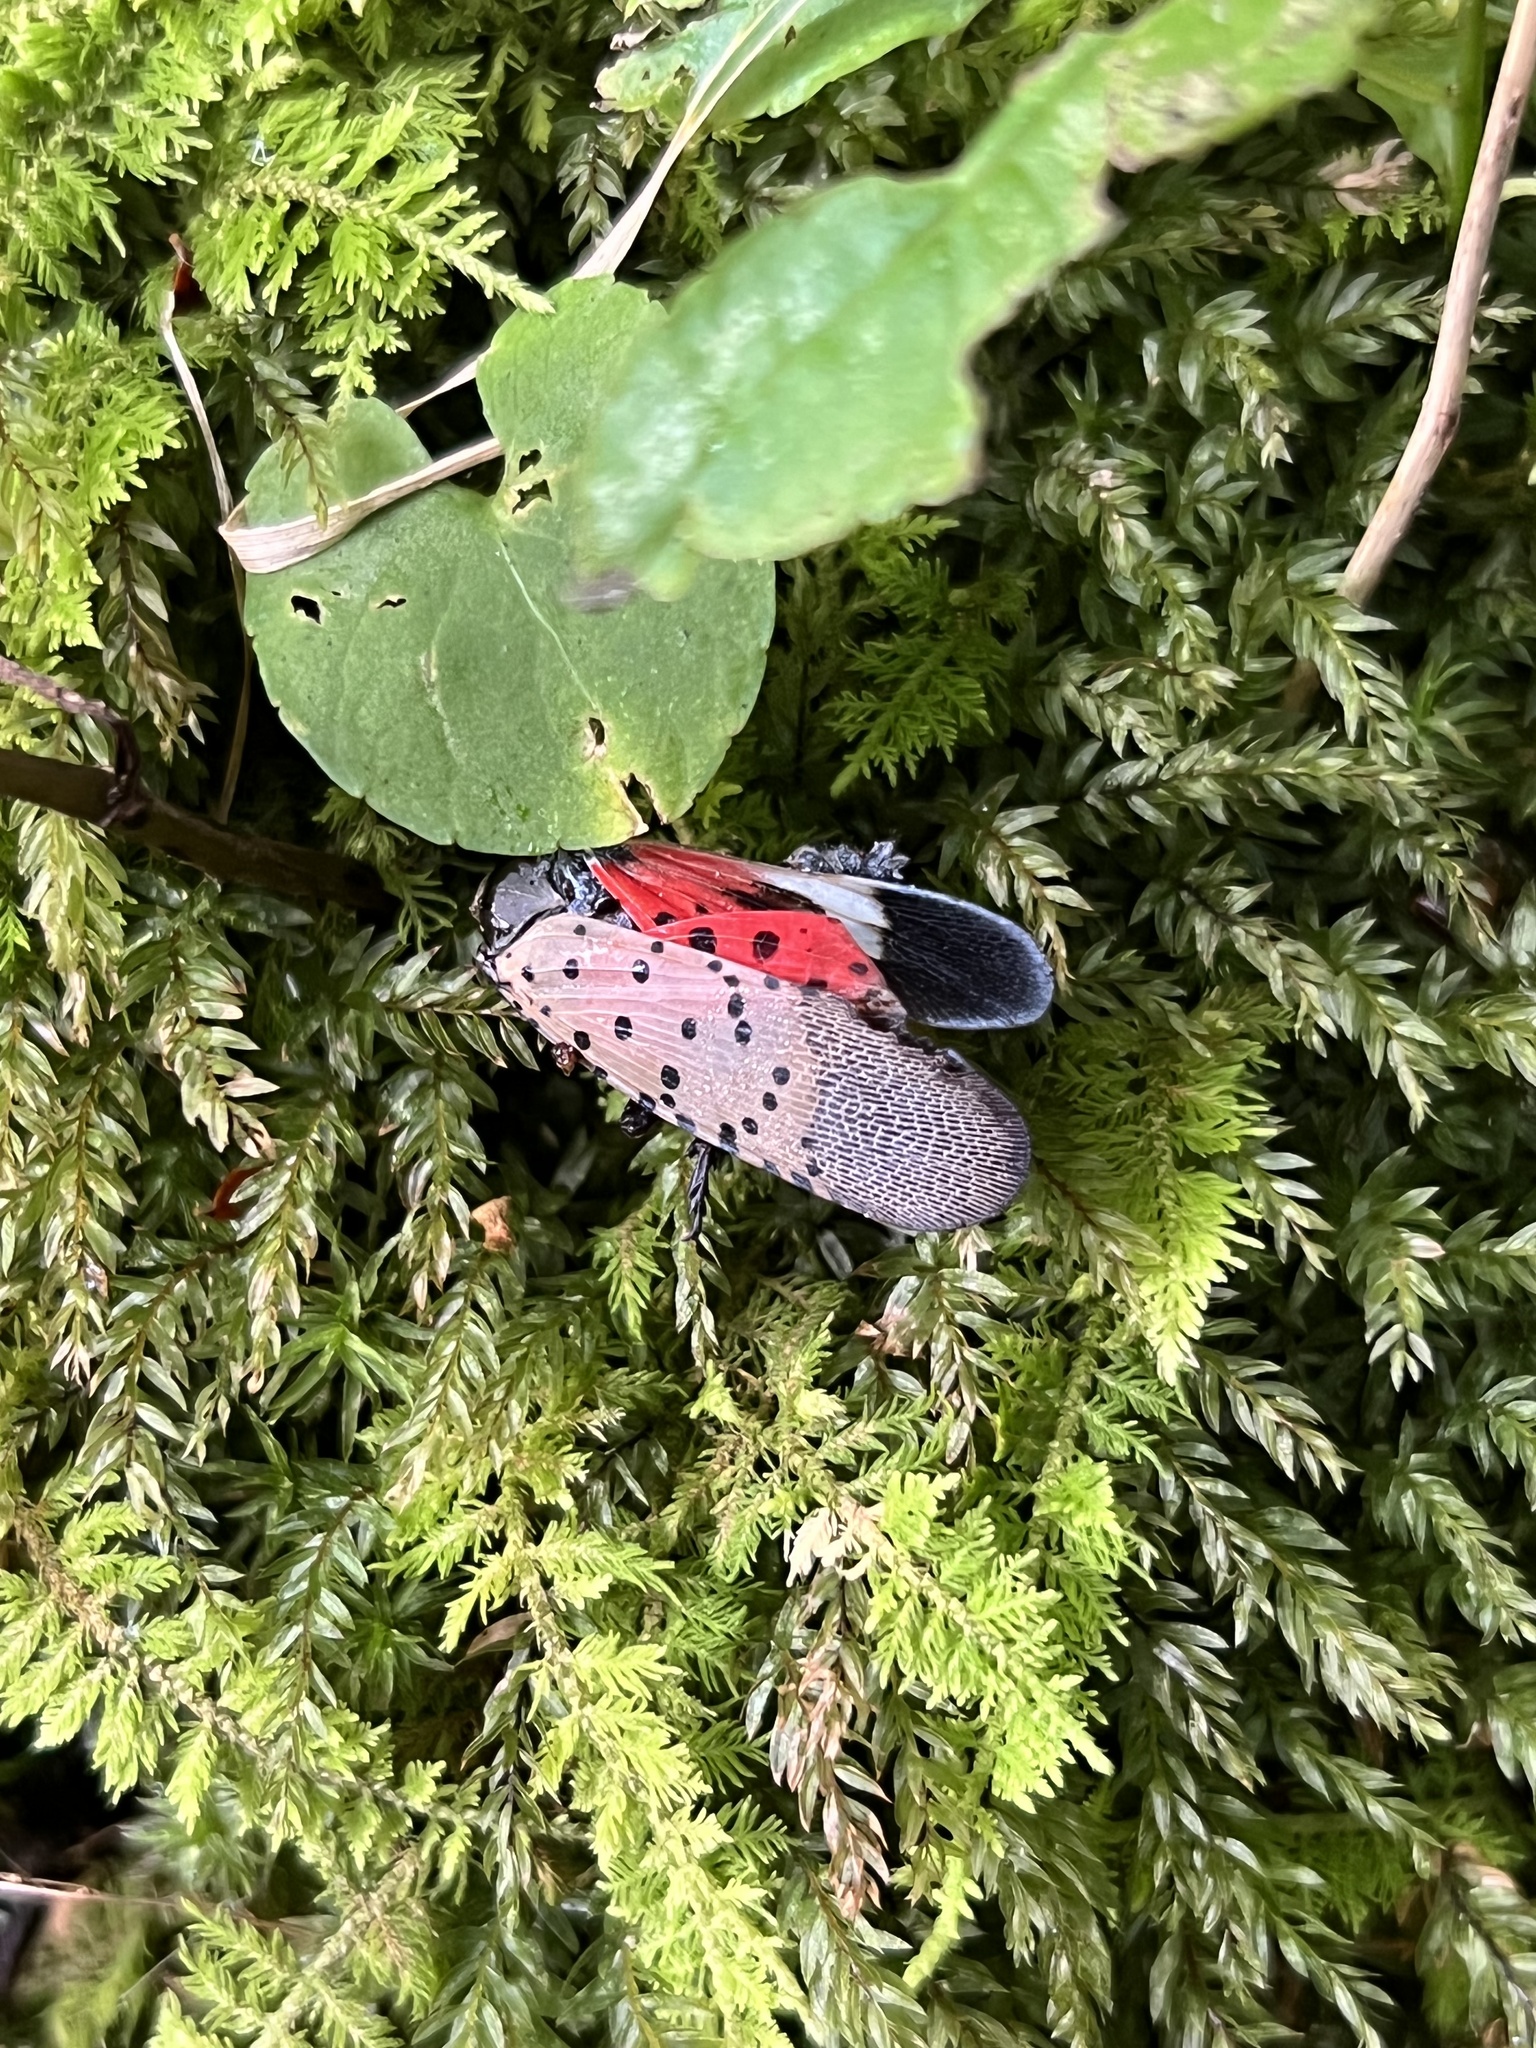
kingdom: Animalia
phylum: Arthropoda
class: Insecta
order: Hemiptera
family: Fulgoridae
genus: Lycorma
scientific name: Lycorma delicatula
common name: Spotted lanternfly
